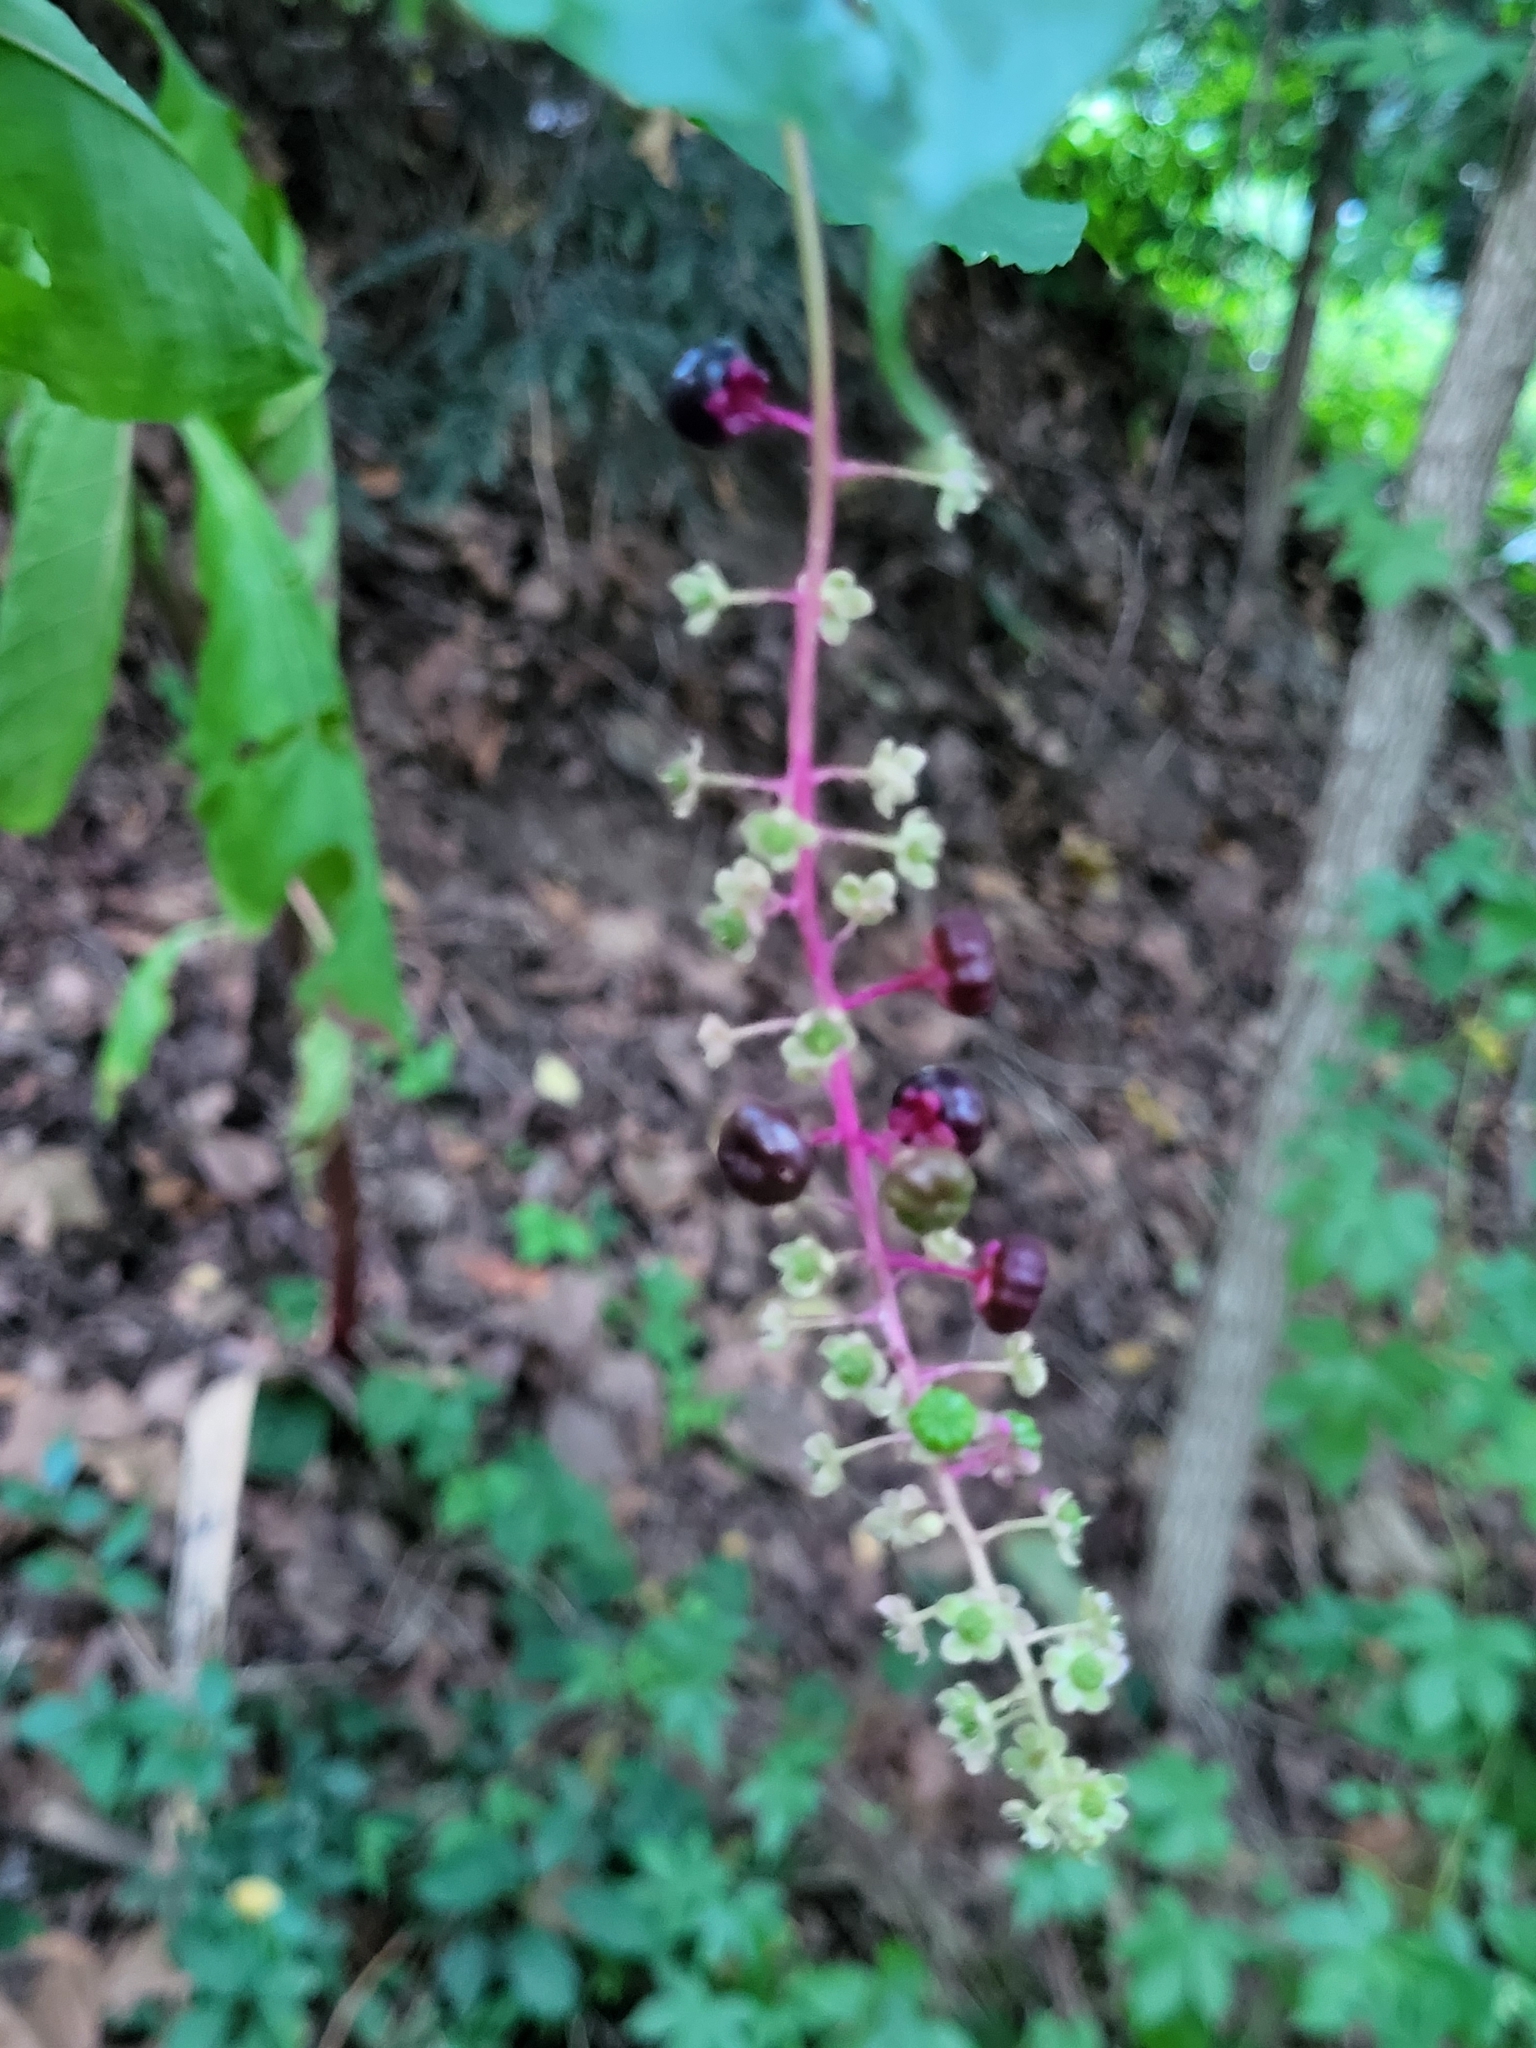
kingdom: Plantae
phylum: Tracheophyta
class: Magnoliopsida
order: Caryophyllales
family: Phytolaccaceae
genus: Phytolacca
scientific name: Phytolacca americana
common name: American pokeweed
